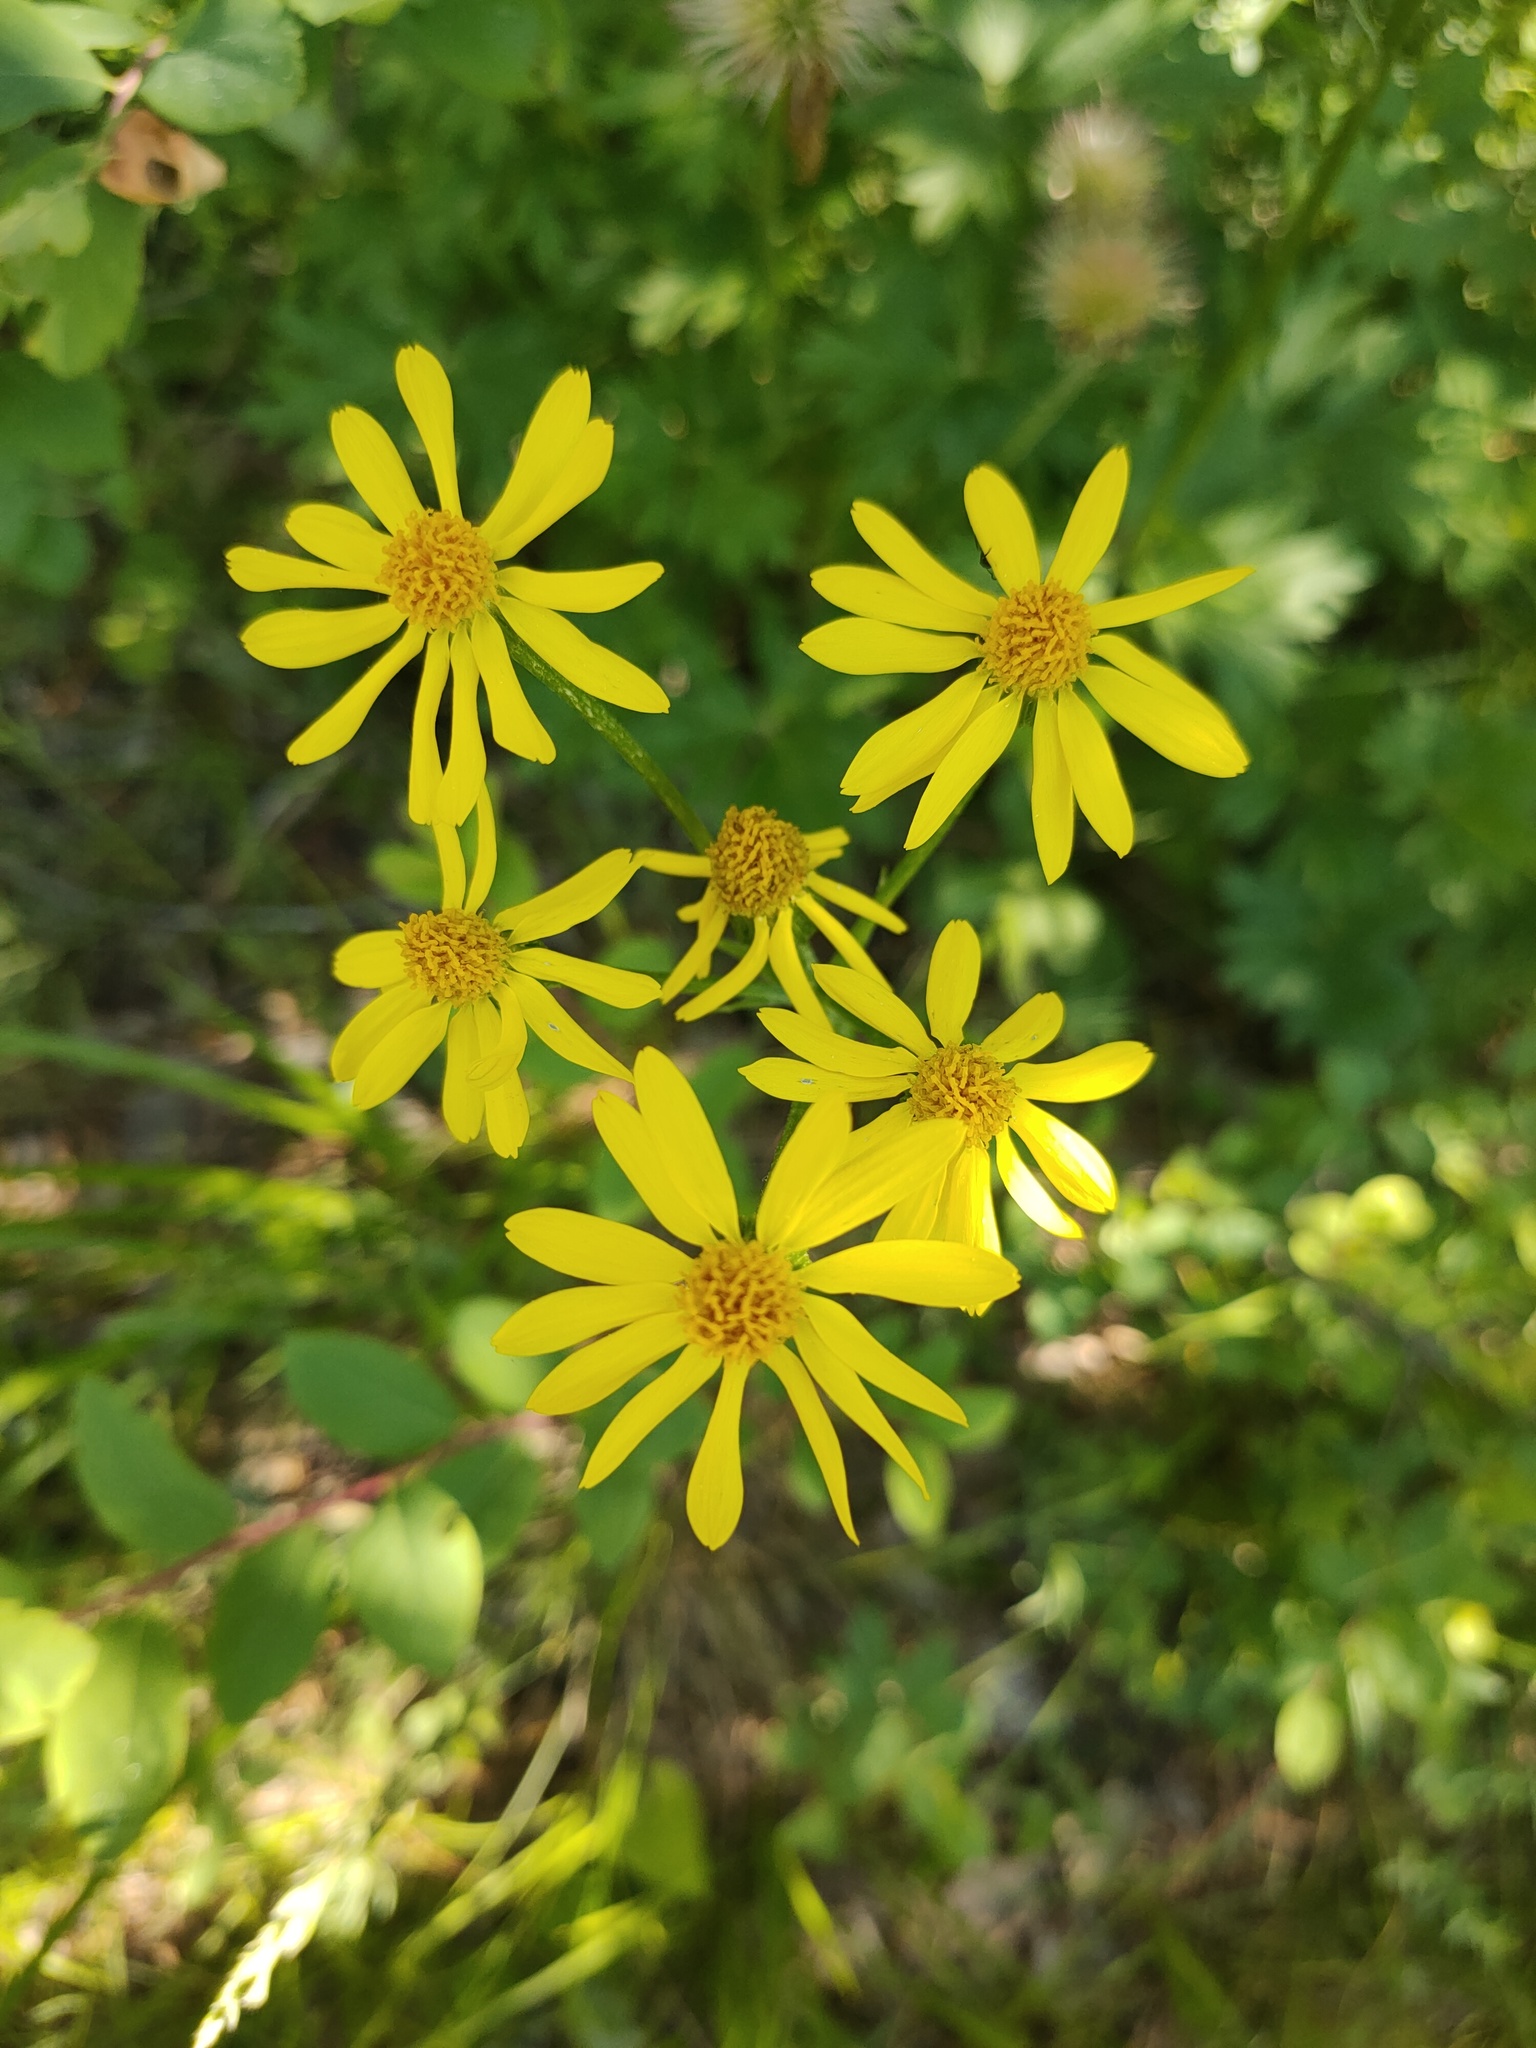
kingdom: Plantae
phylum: Tracheophyta
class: Magnoliopsida
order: Asterales
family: Asteraceae
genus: Tephroseris
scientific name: Tephroseris integrifolia
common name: Field fleawort
